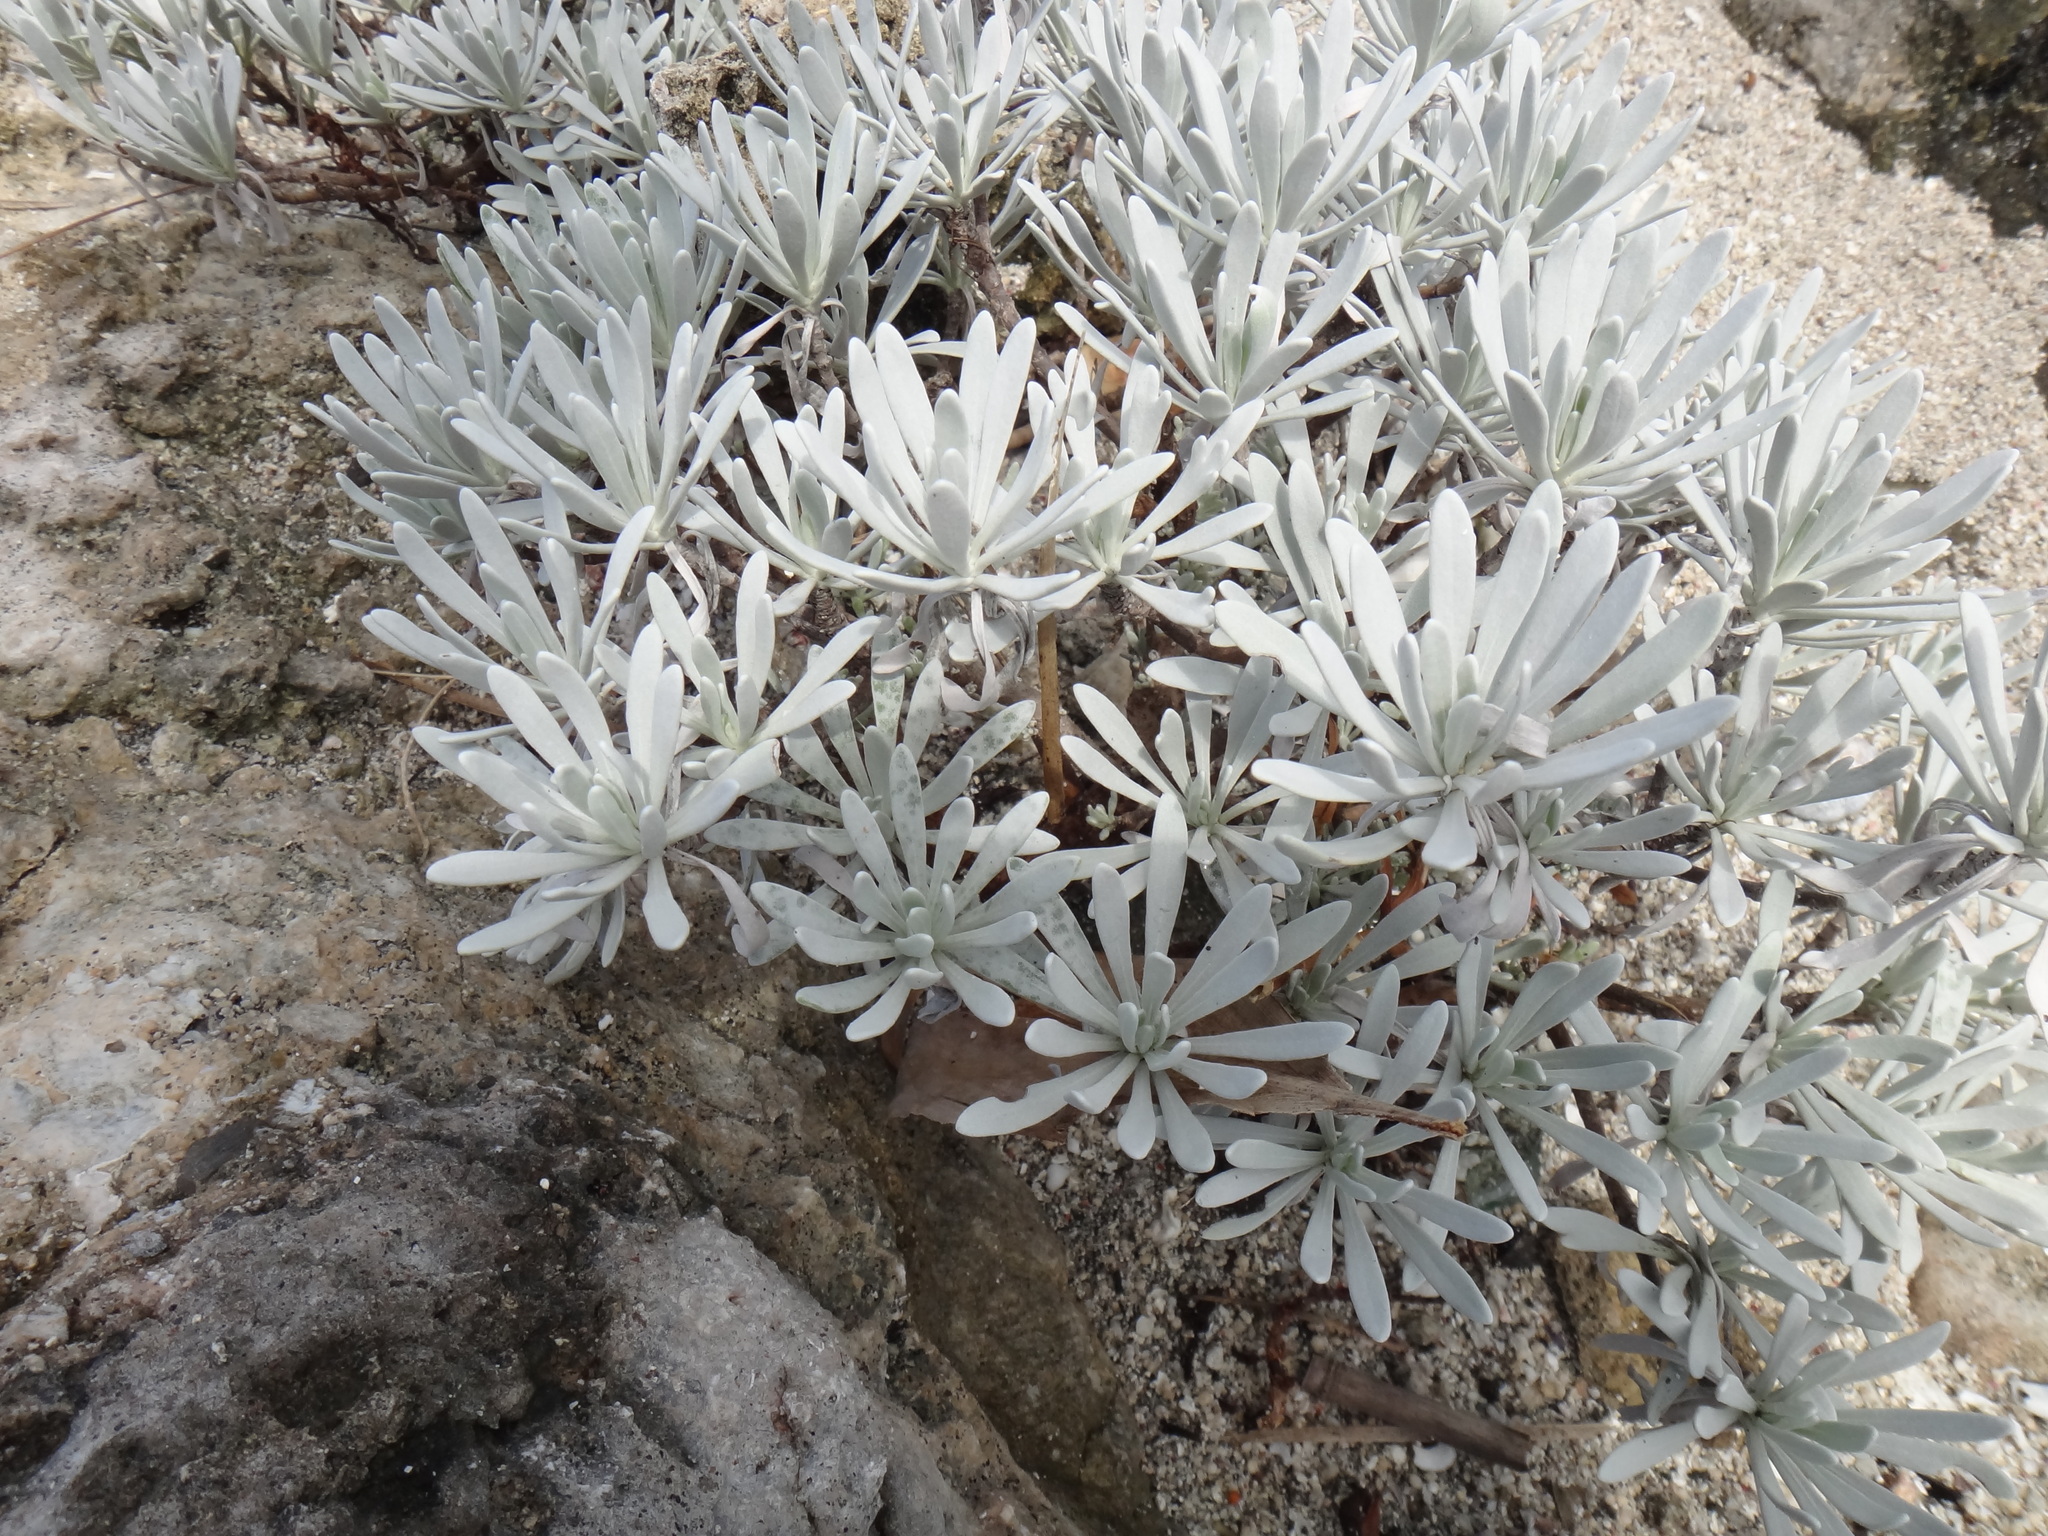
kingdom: Plantae
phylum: Tracheophyta
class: Magnoliopsida
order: Asterales
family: Asteraceae
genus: Crossostephium
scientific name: Crossostephium chinense
